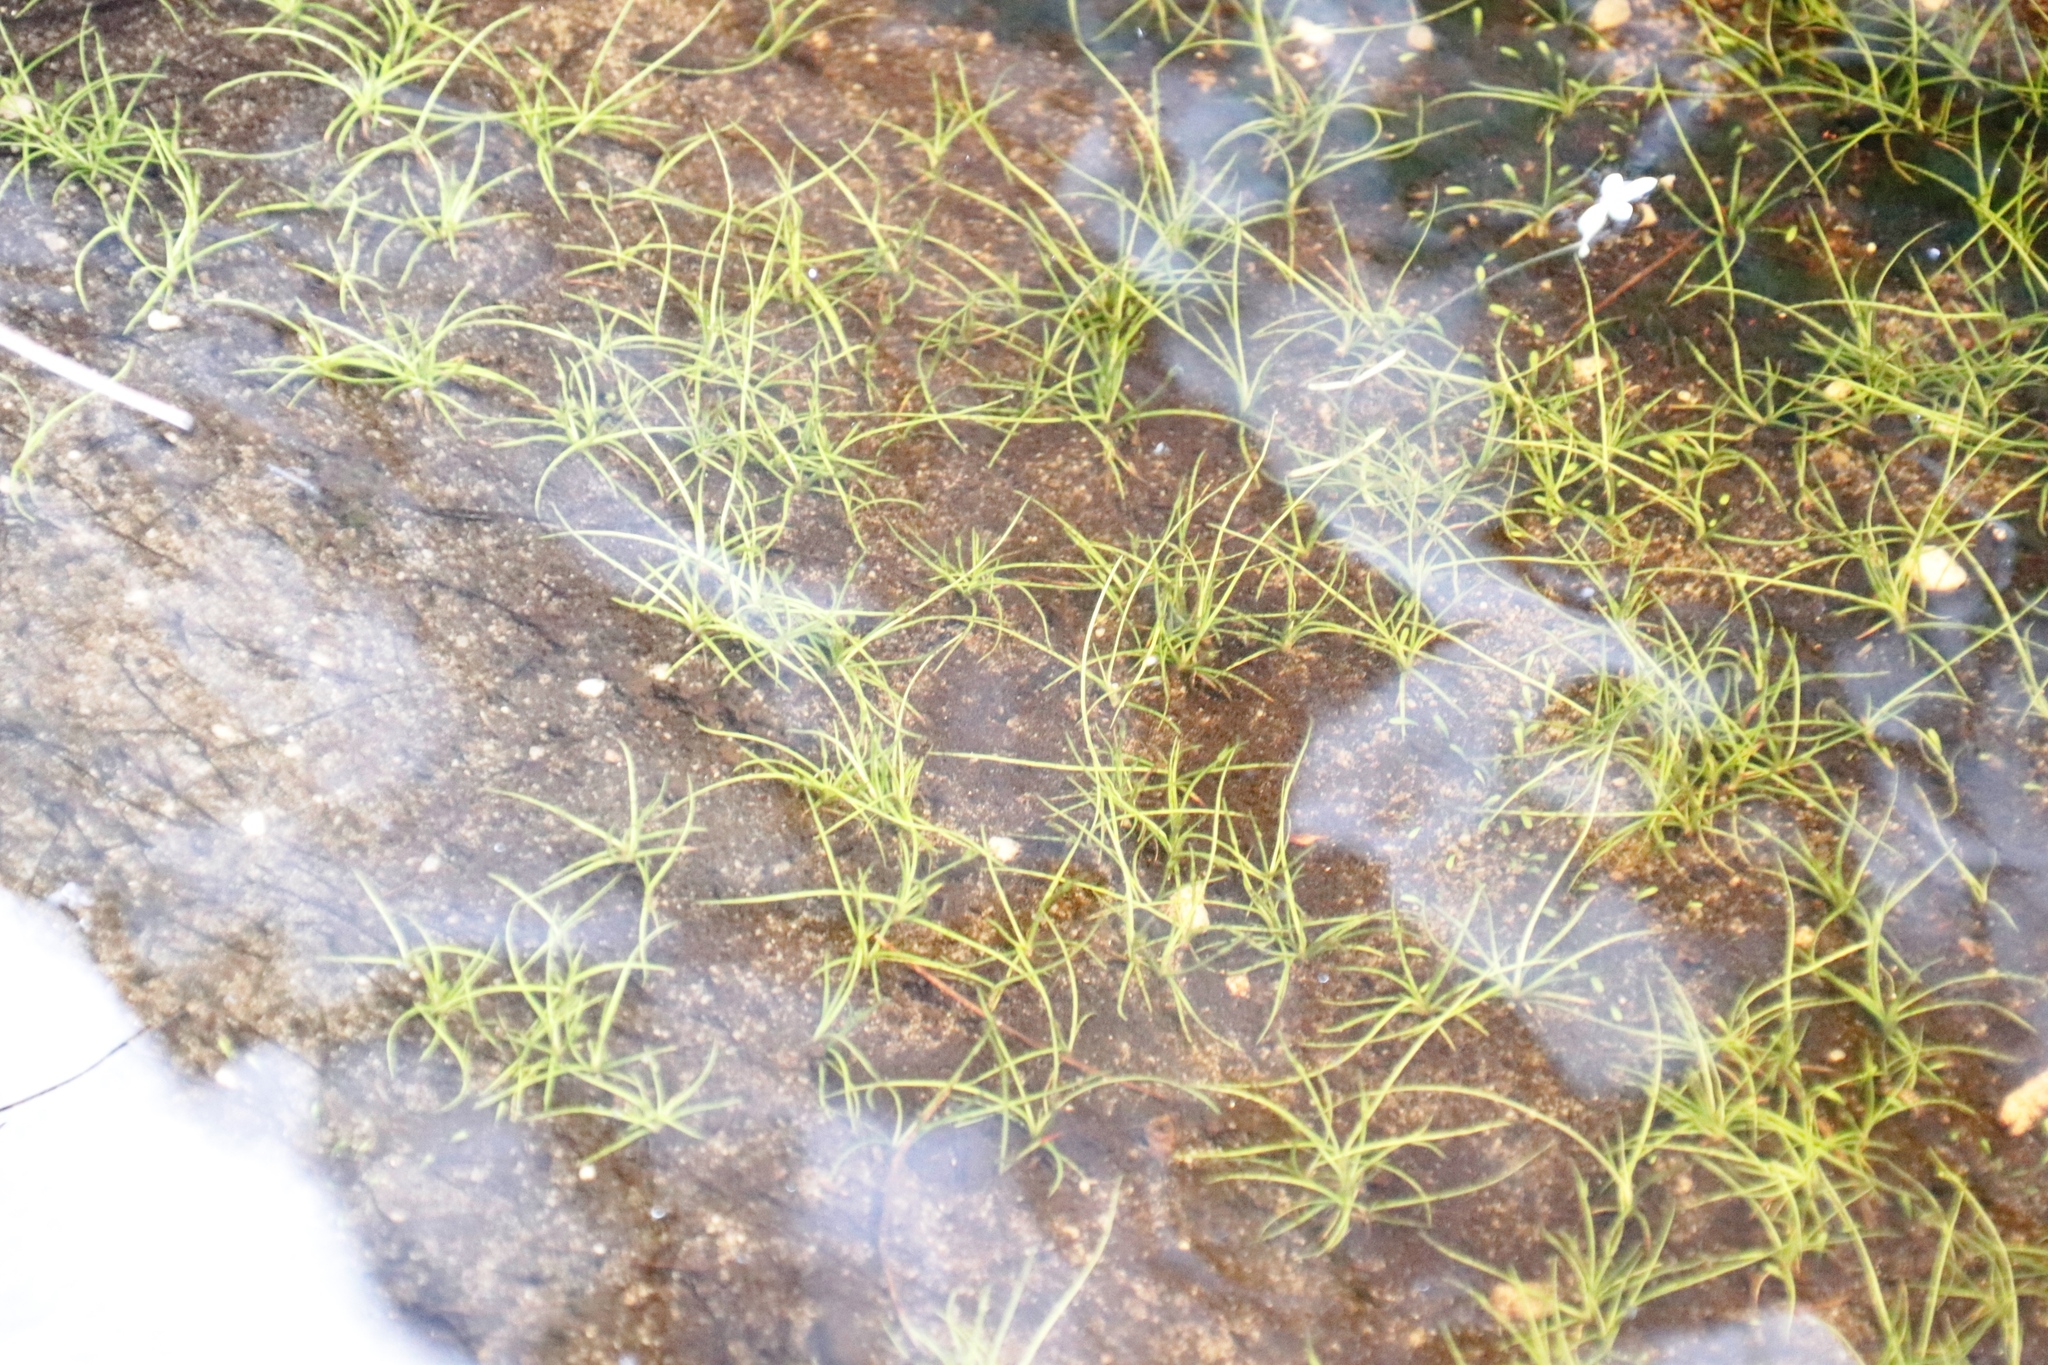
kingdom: Plantae
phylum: Tracheophyta
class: Magnoliopsida
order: Saxifragales
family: Crassulaceae
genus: Crassula
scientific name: Crassula natans
